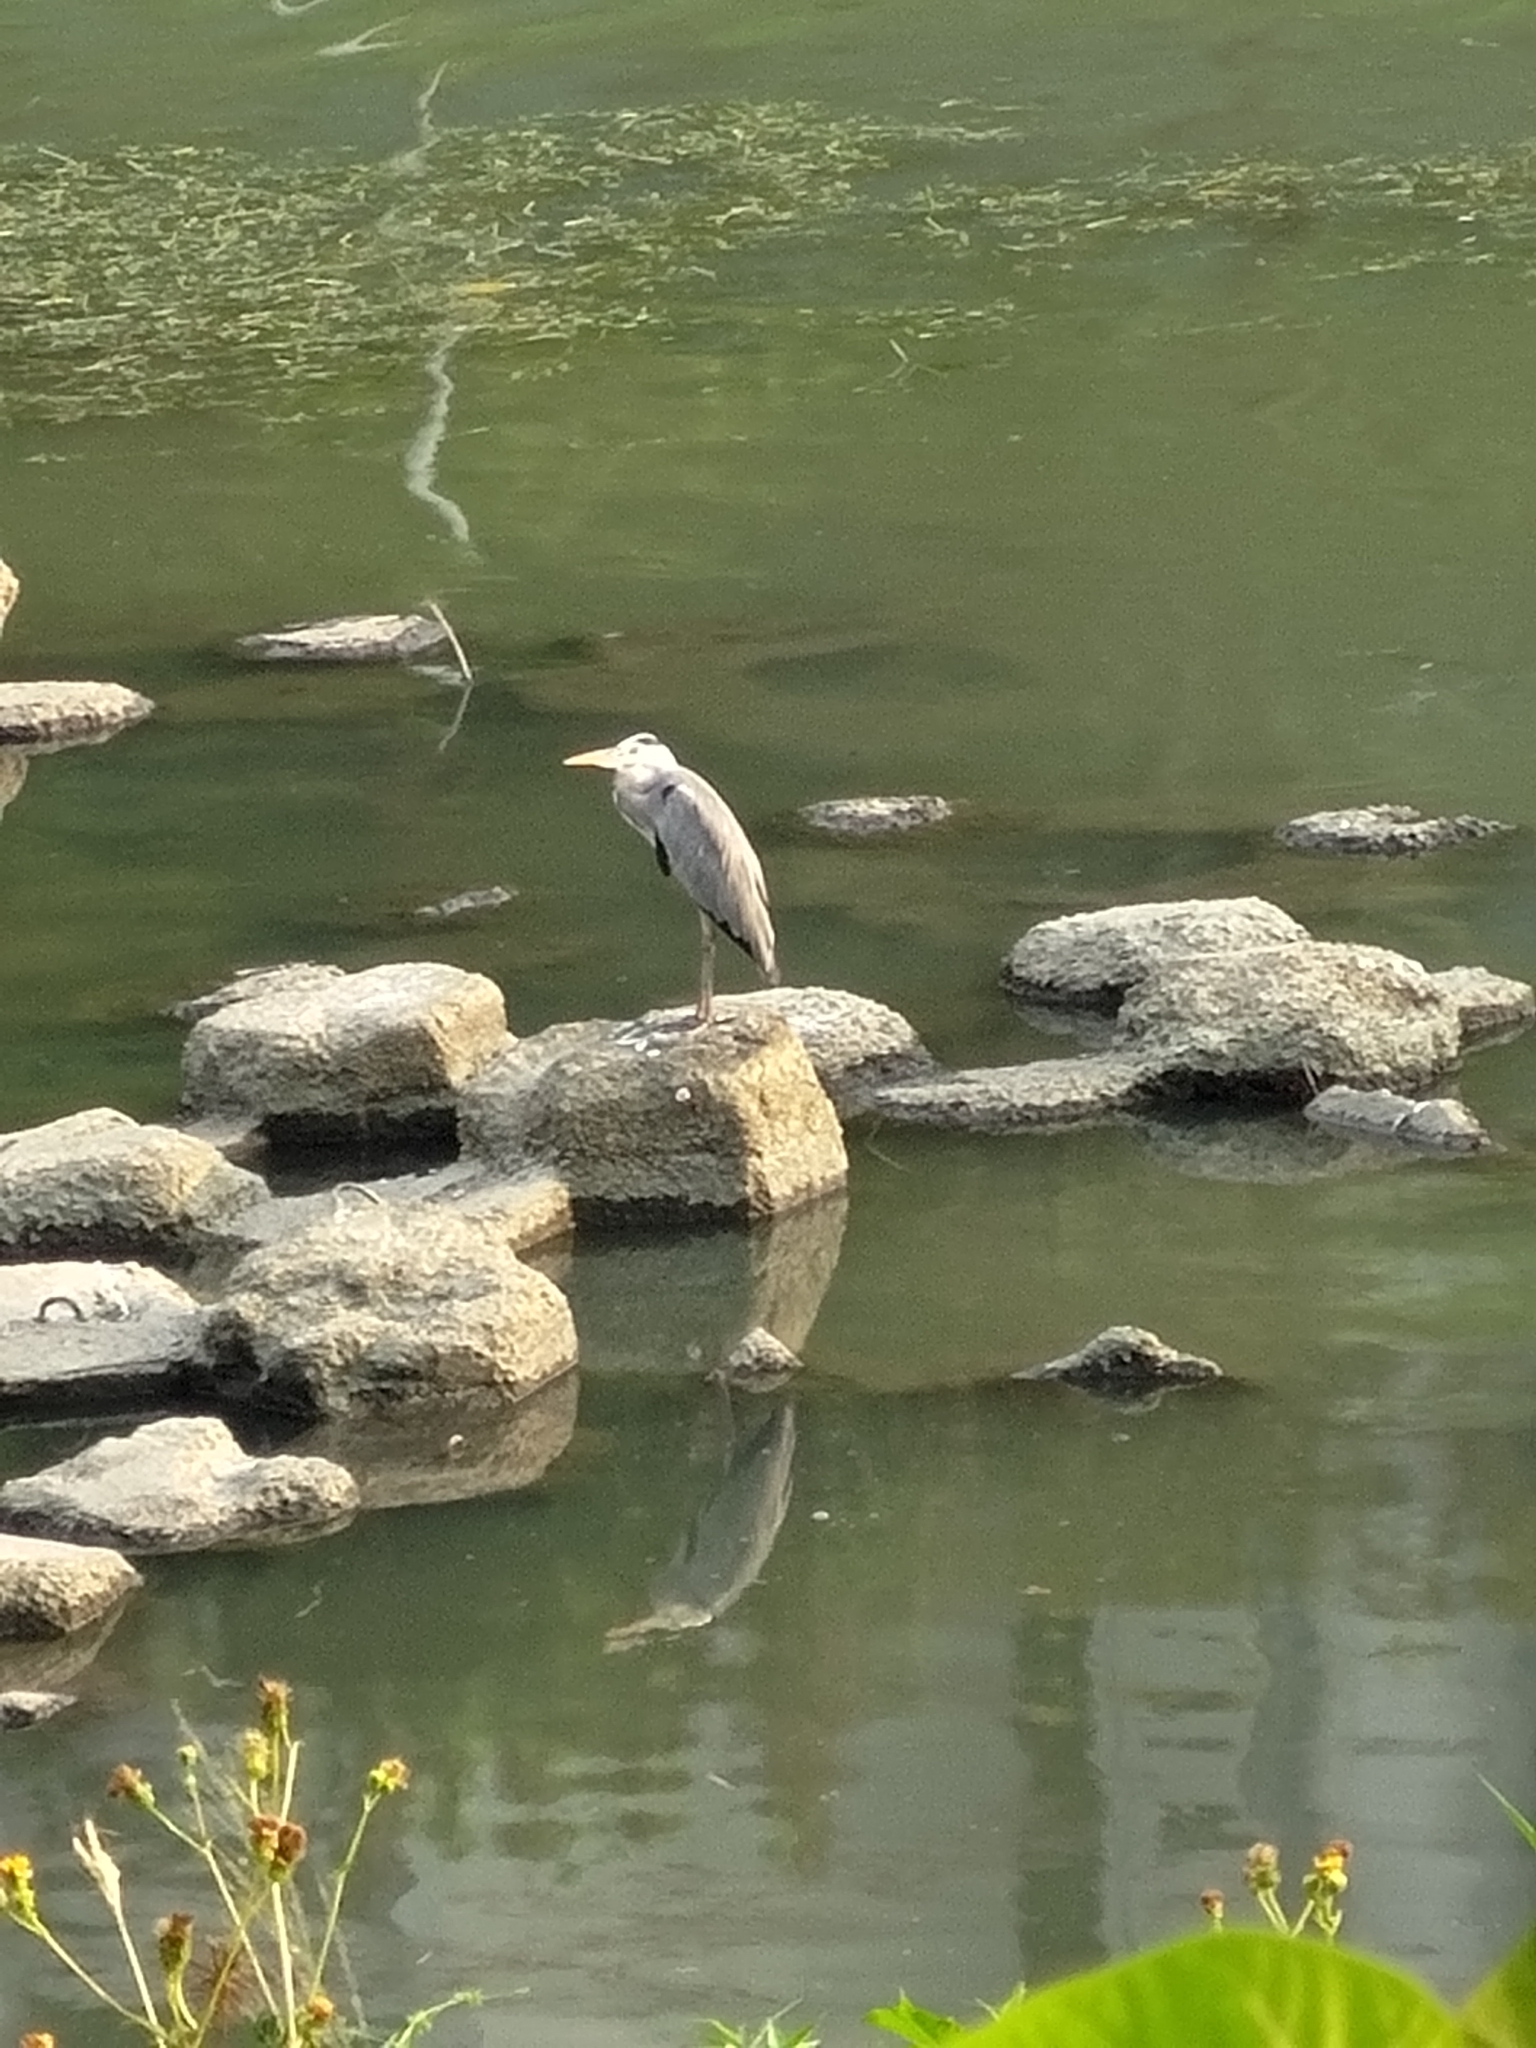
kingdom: Animalia
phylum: Chordata
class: Aves
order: Pelecaniformes
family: Ardeidae
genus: Ardea
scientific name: Ardea cinerea
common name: Grey heron
